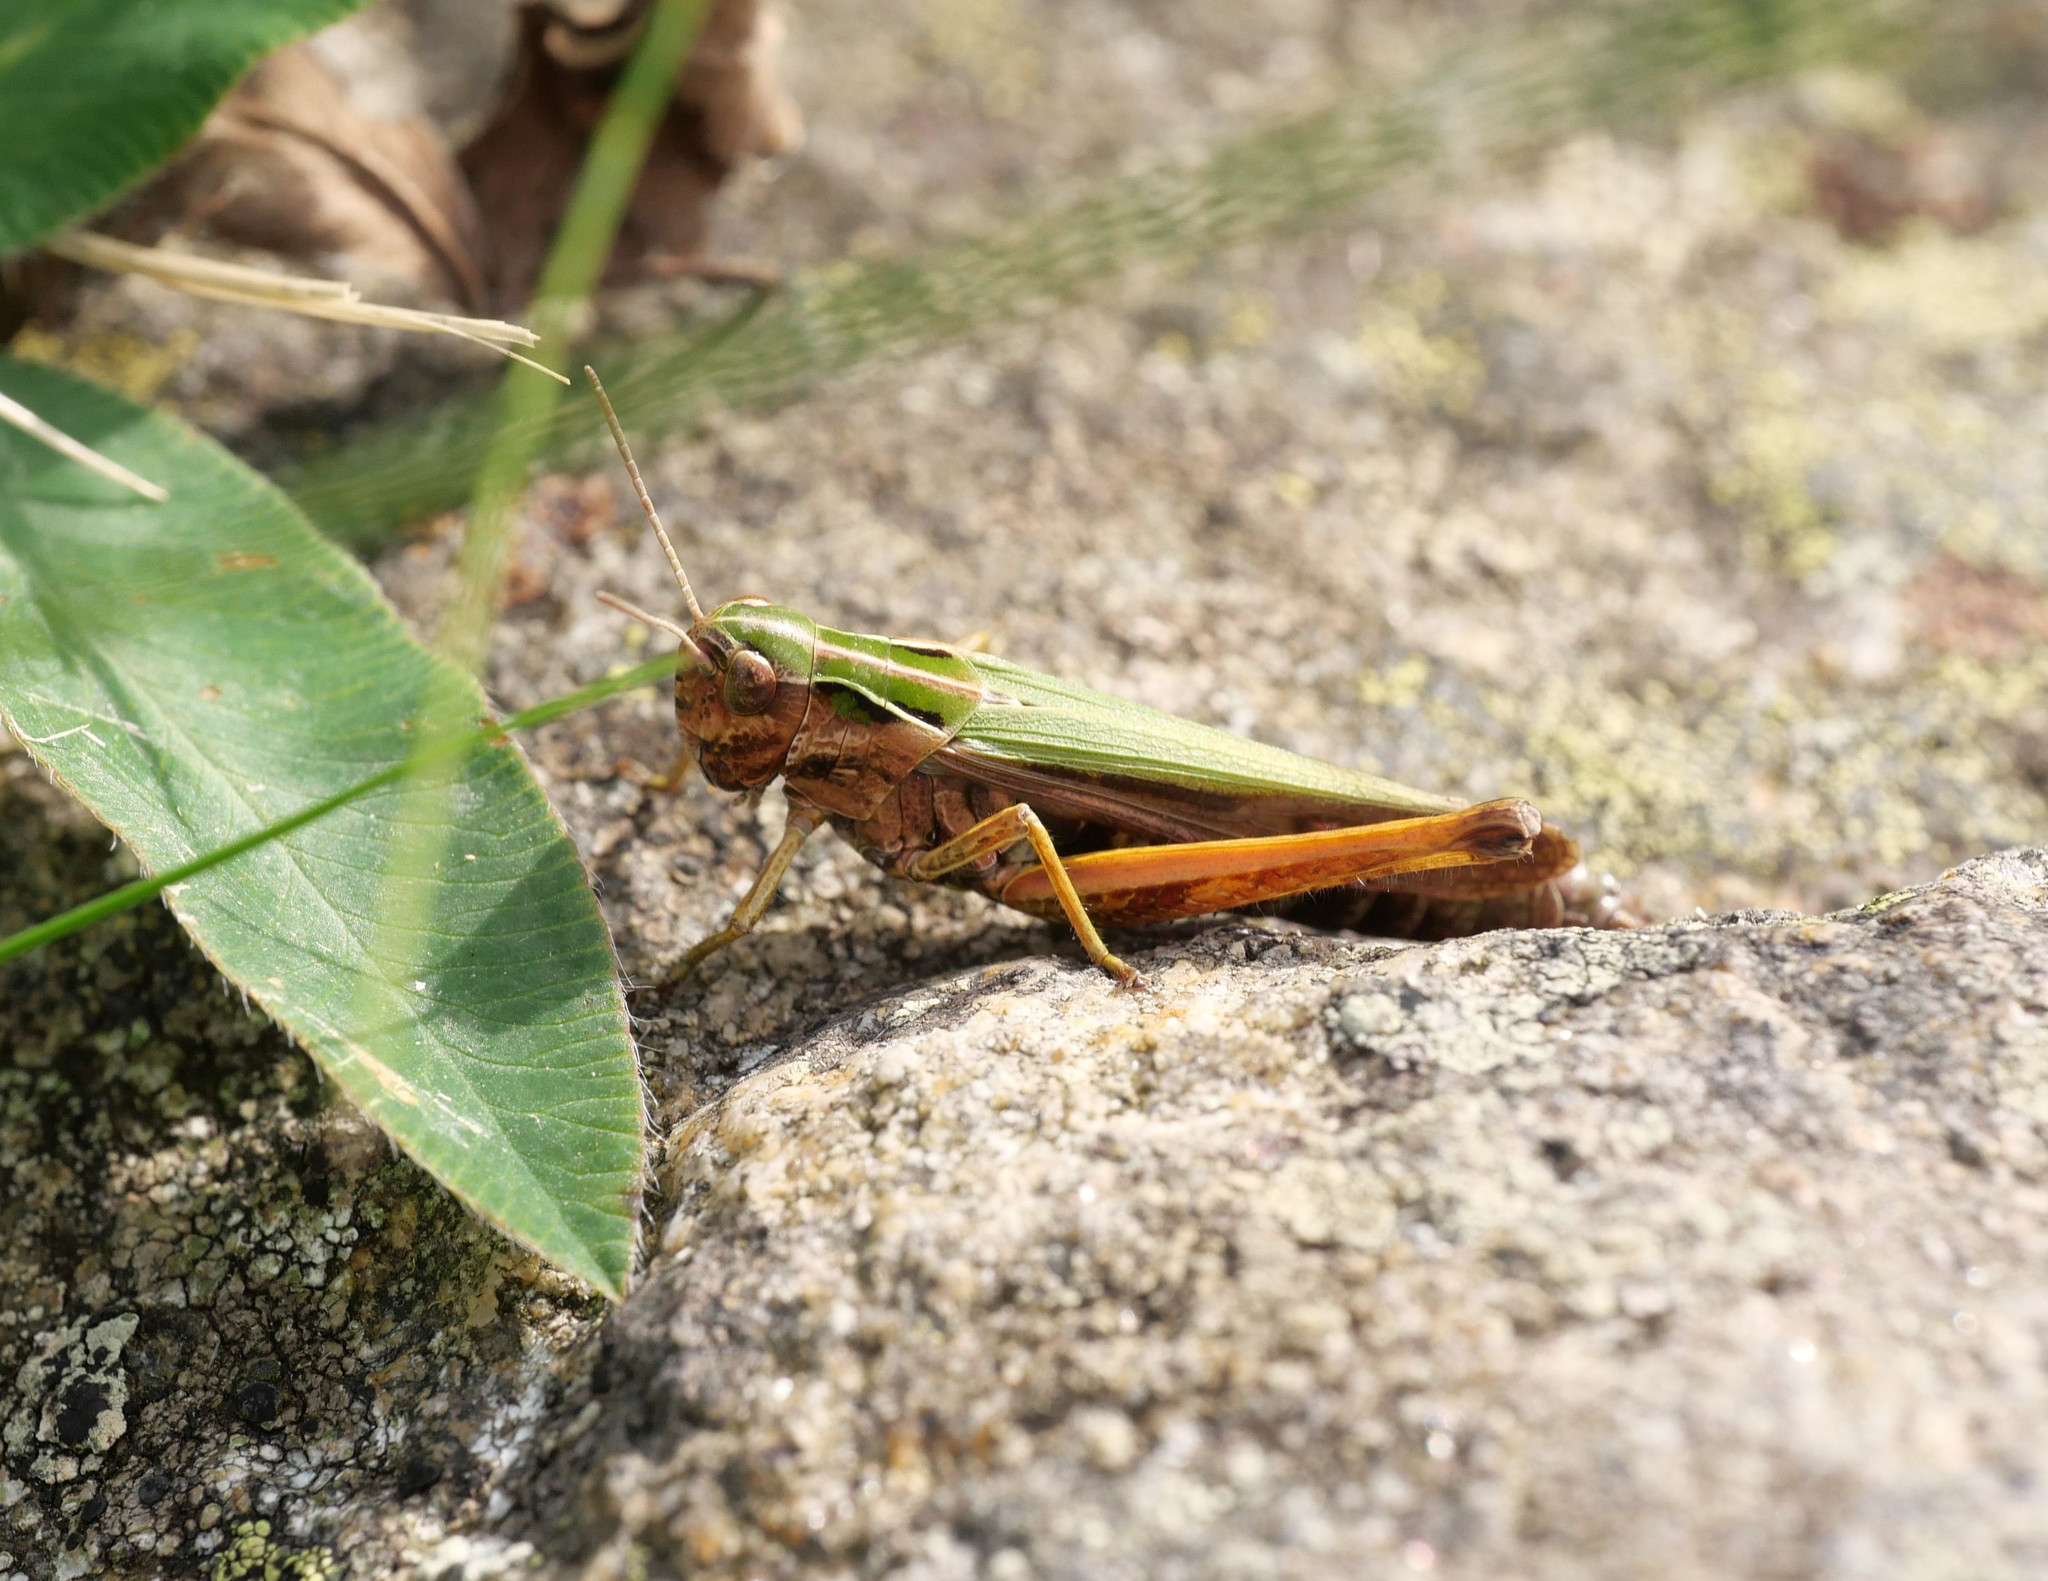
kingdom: Animalia
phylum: Arthropoda
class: Insecta
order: Orthoptera
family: Acrididae
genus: Omocestus
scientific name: Omocestus viridulus
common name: Common green grasshopper
